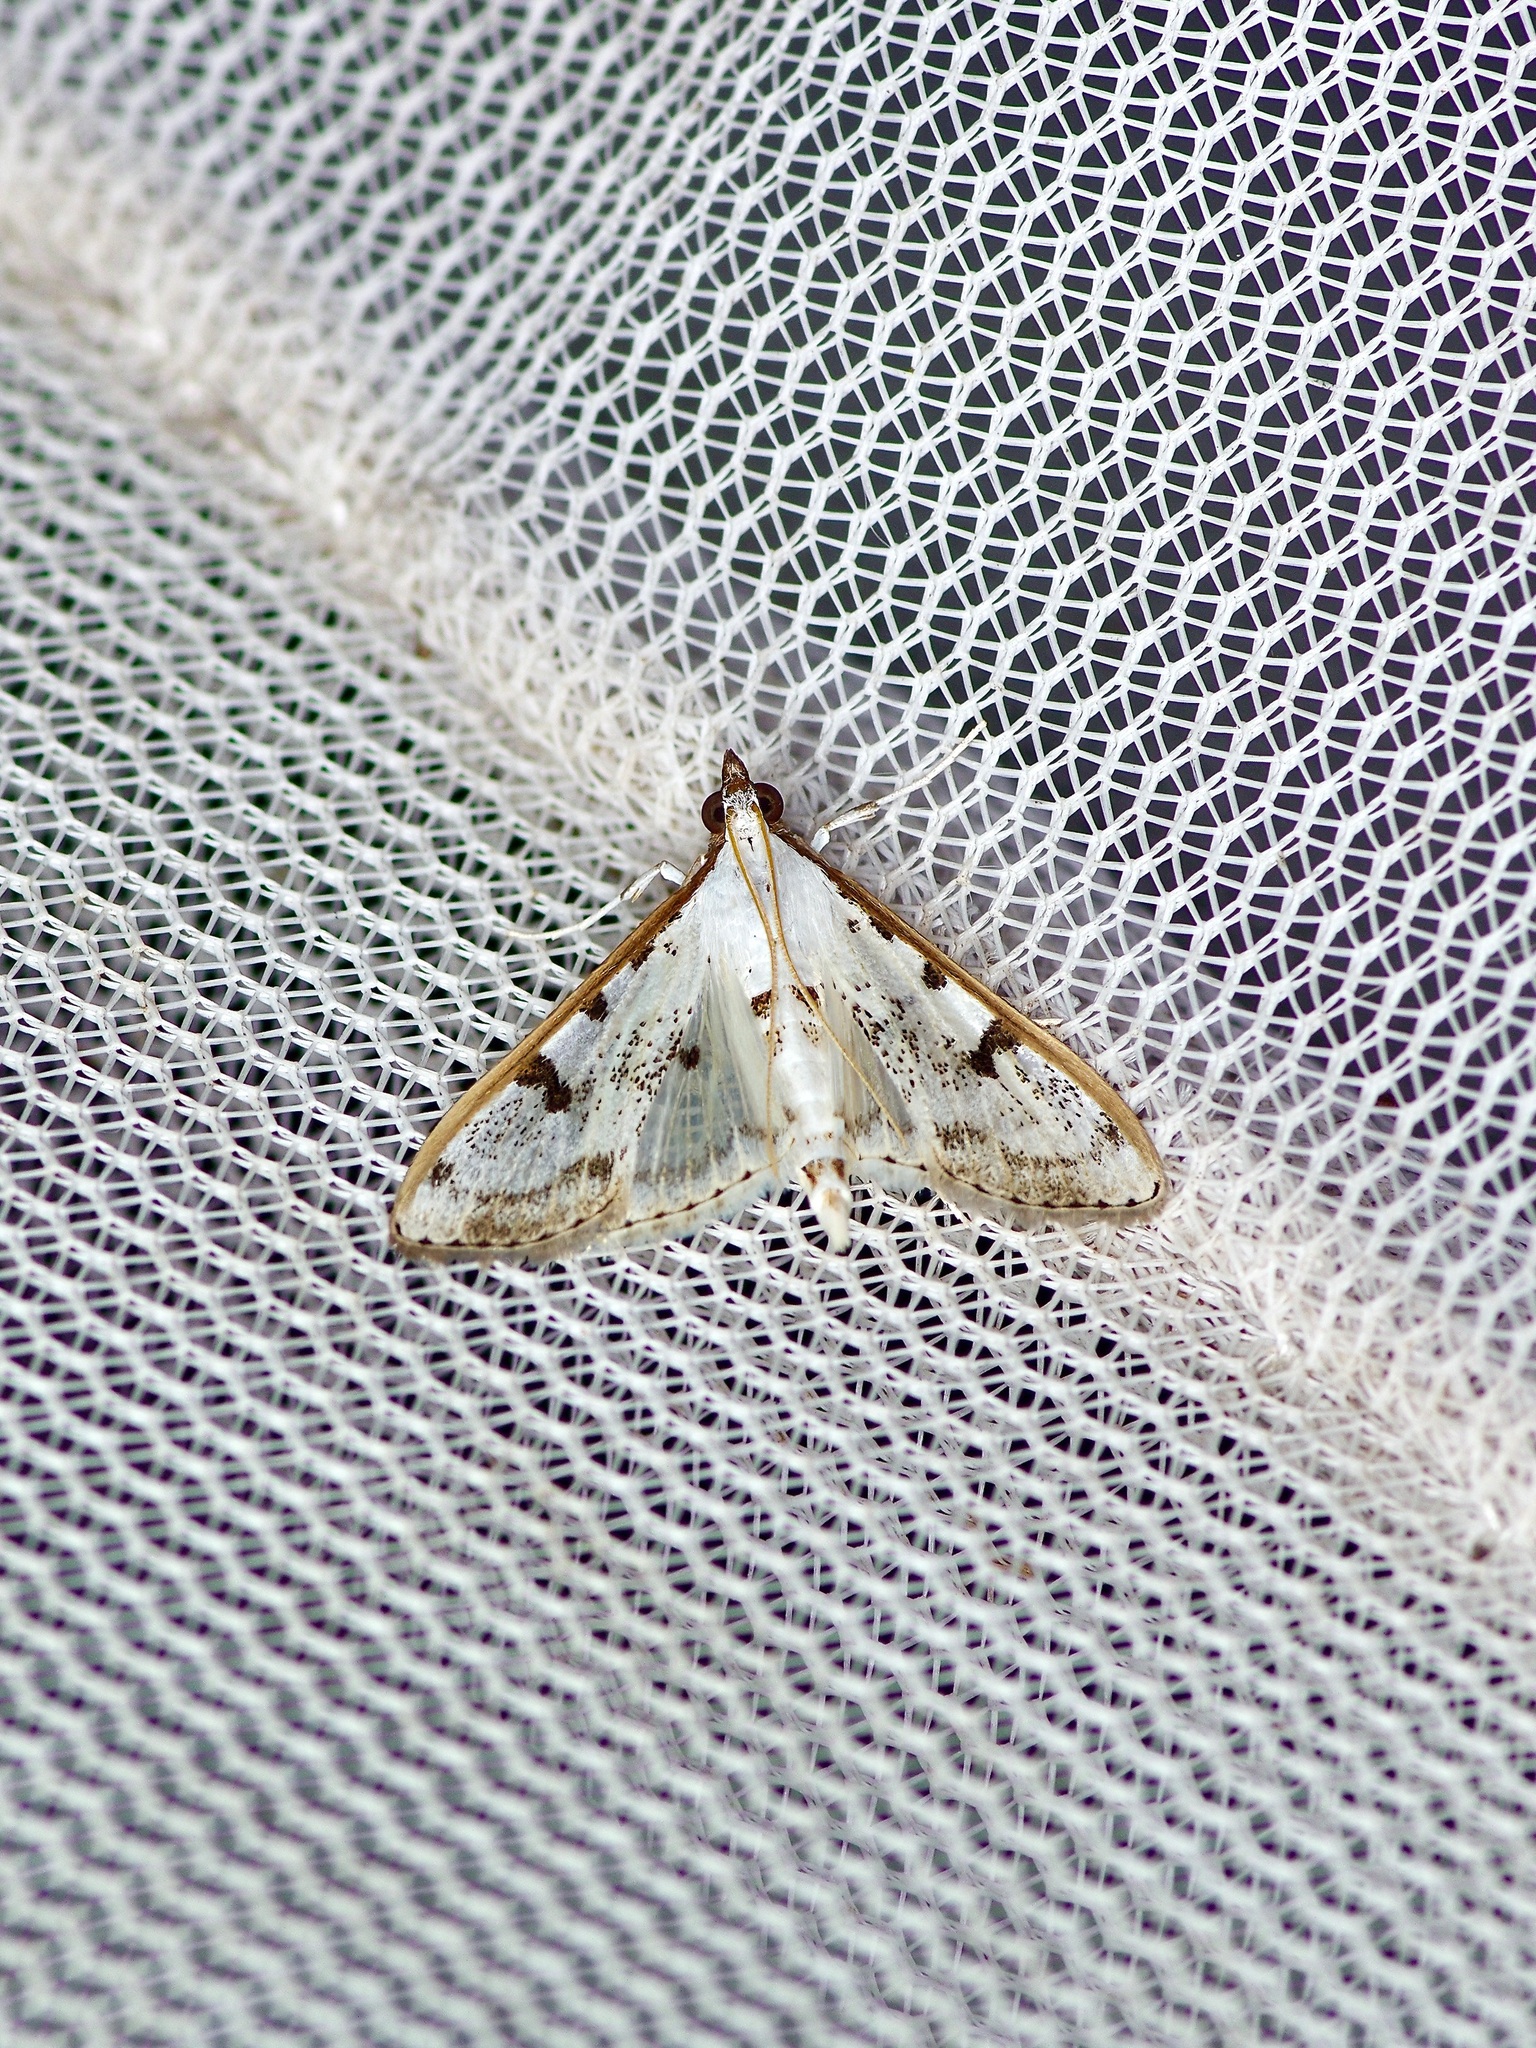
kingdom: Animalia
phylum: Arthropoda
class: Insecta
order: Lepidoptera
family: Crambidae
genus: Palpita
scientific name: Palpita gracilalis
